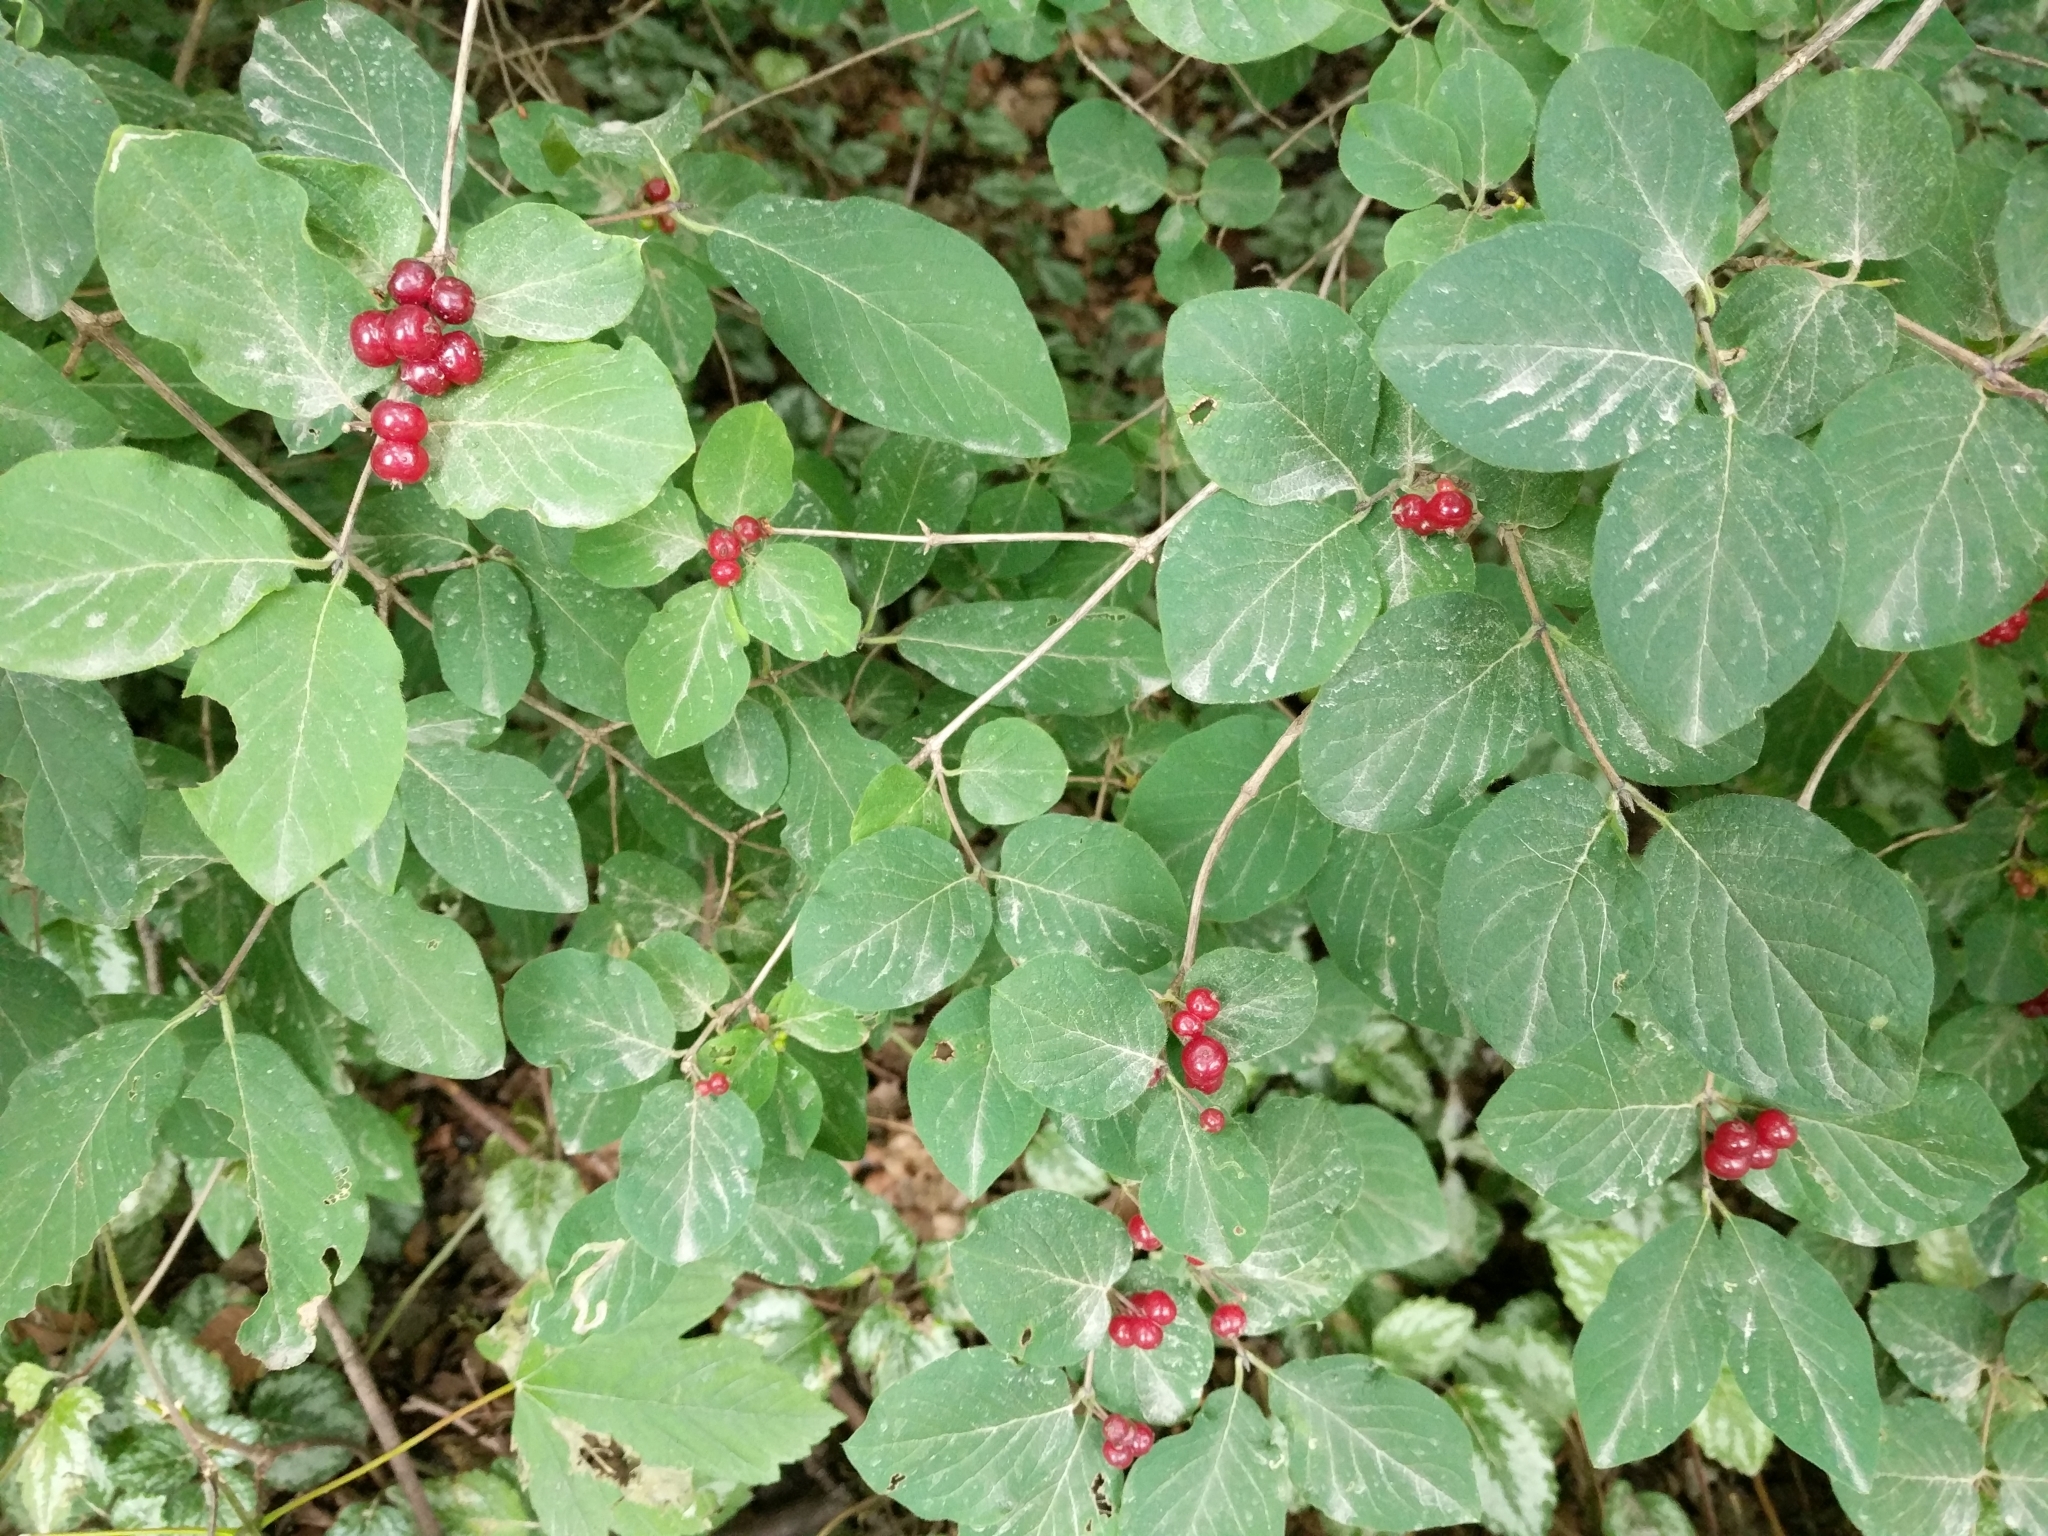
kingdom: Plantae
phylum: Tracheophyta
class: Magnoliopsida
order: Dipsacales
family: Caprifoliaceae
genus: Lonicera
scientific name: Lonicera xylosteum
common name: Fly honeysuckle
